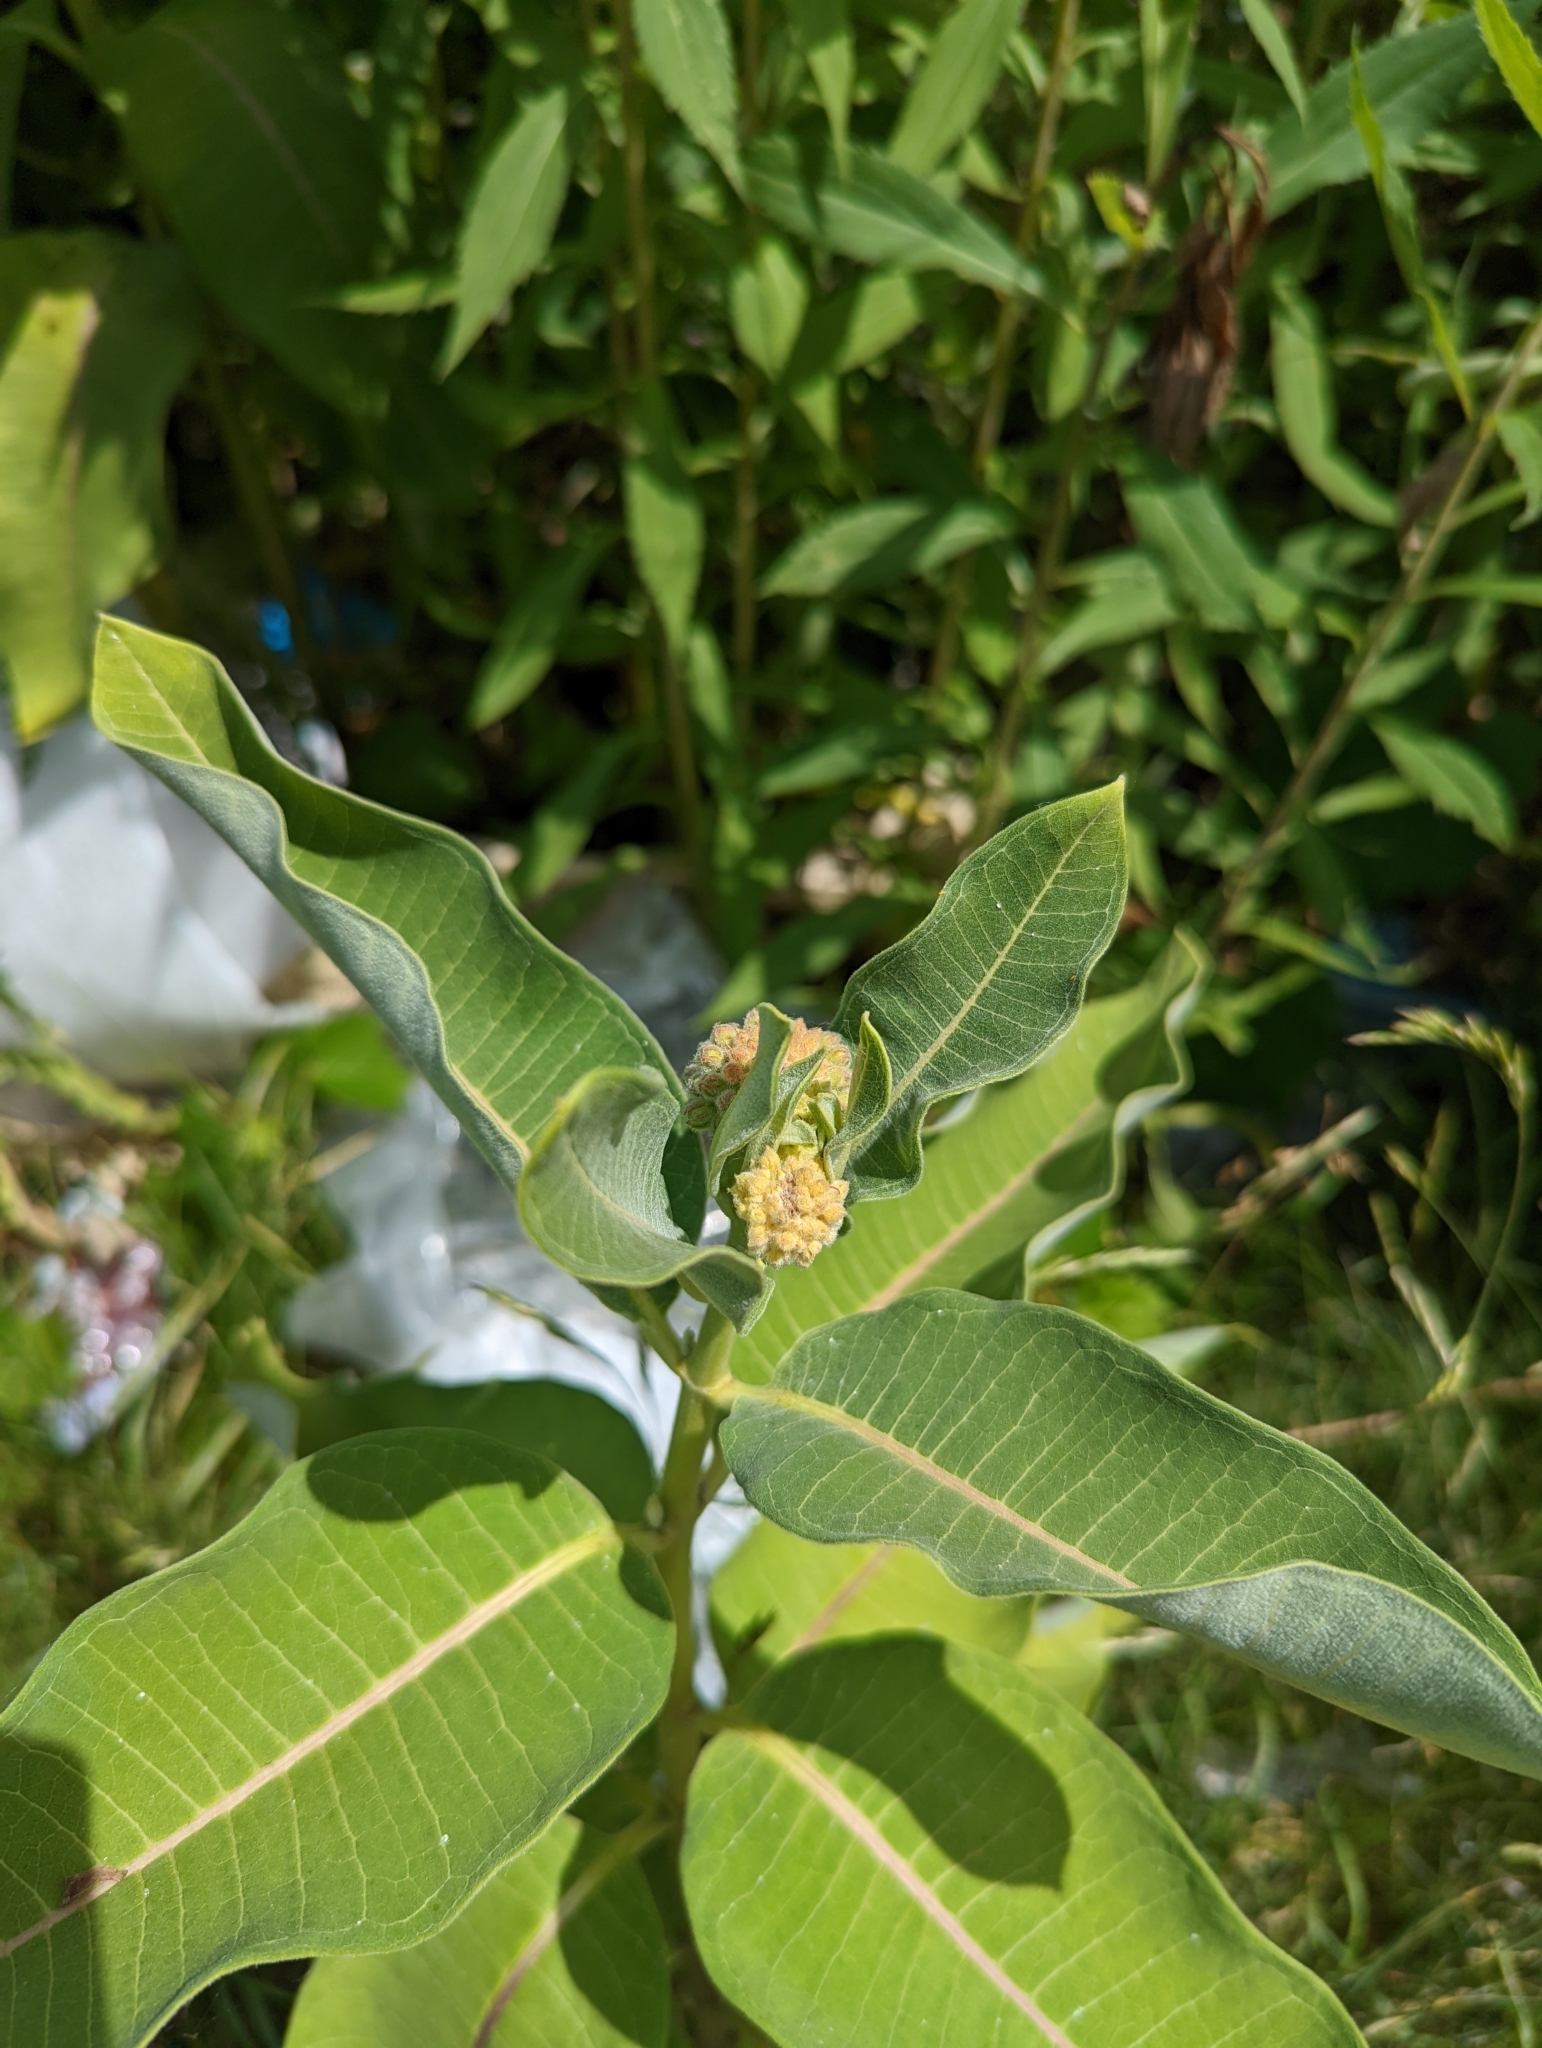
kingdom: Plantae
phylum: Tracheophyta
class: Magnoliopsida
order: Gentianales
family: Apocynaceae
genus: Asclepias
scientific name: Asclepias syriaca
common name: Common milkweed
